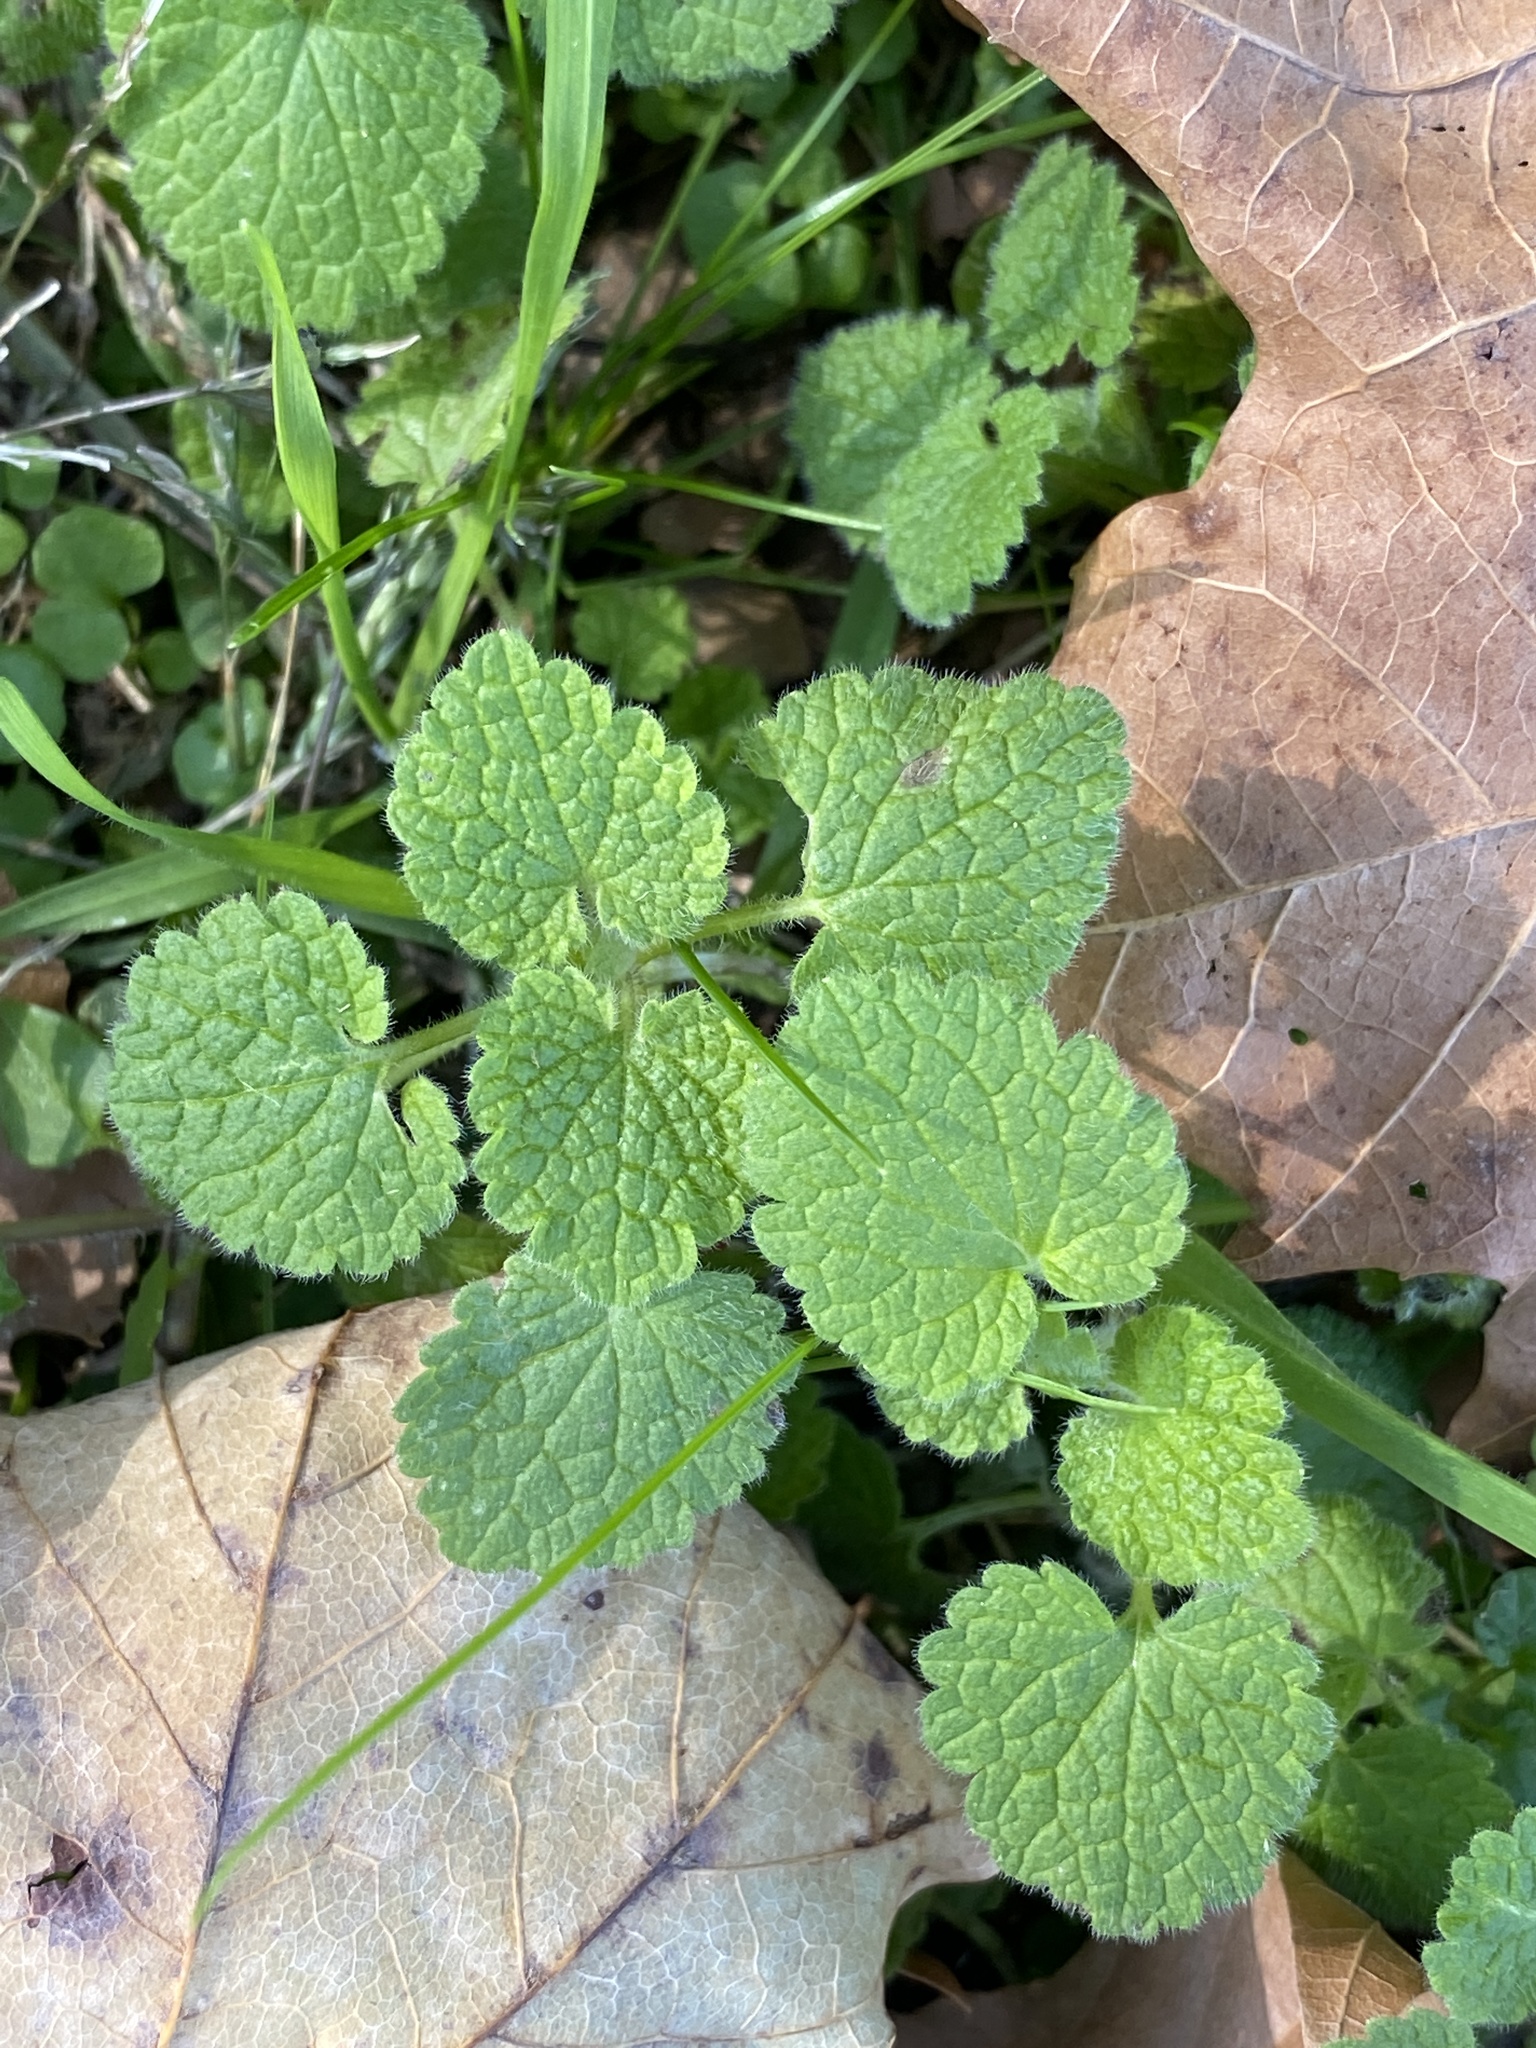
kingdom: Plantae
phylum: Tracheophyta
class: Magnoliopsida
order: Lamiales
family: Lamiaceae
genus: Lamium
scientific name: Lamium purpureum
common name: Red dead-nettle
